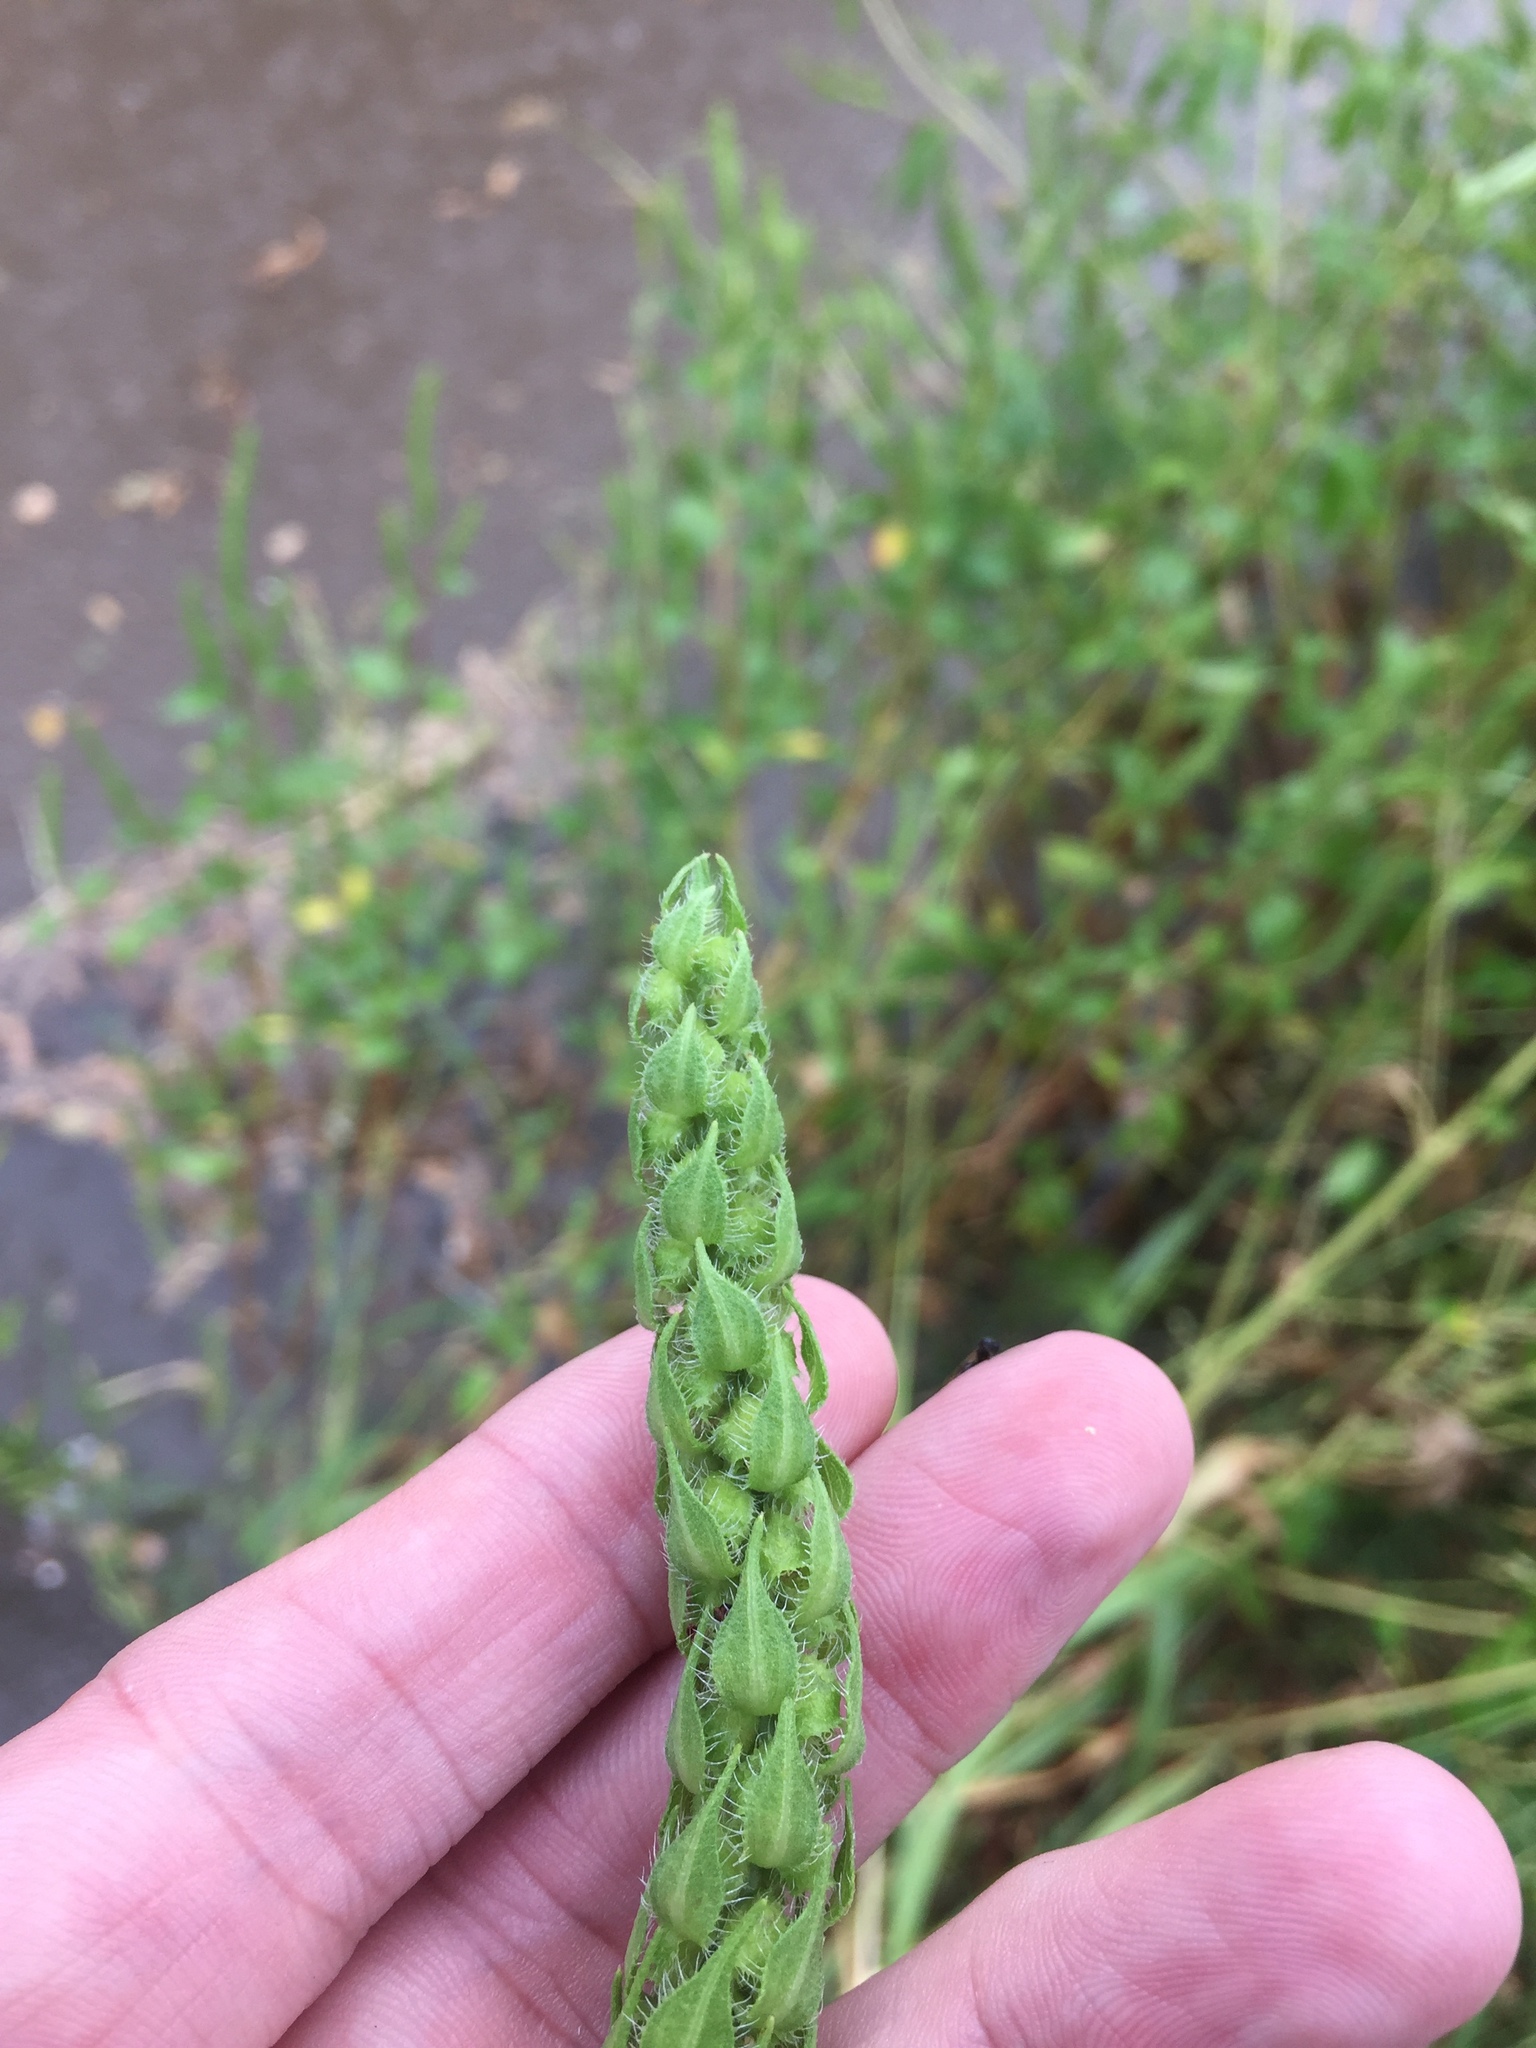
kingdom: Plantae
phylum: Tracheophyta
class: Magnoliopsida
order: Asterales
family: Asteraceae
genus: Iva
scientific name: Iva annua
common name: Marsh-elder
